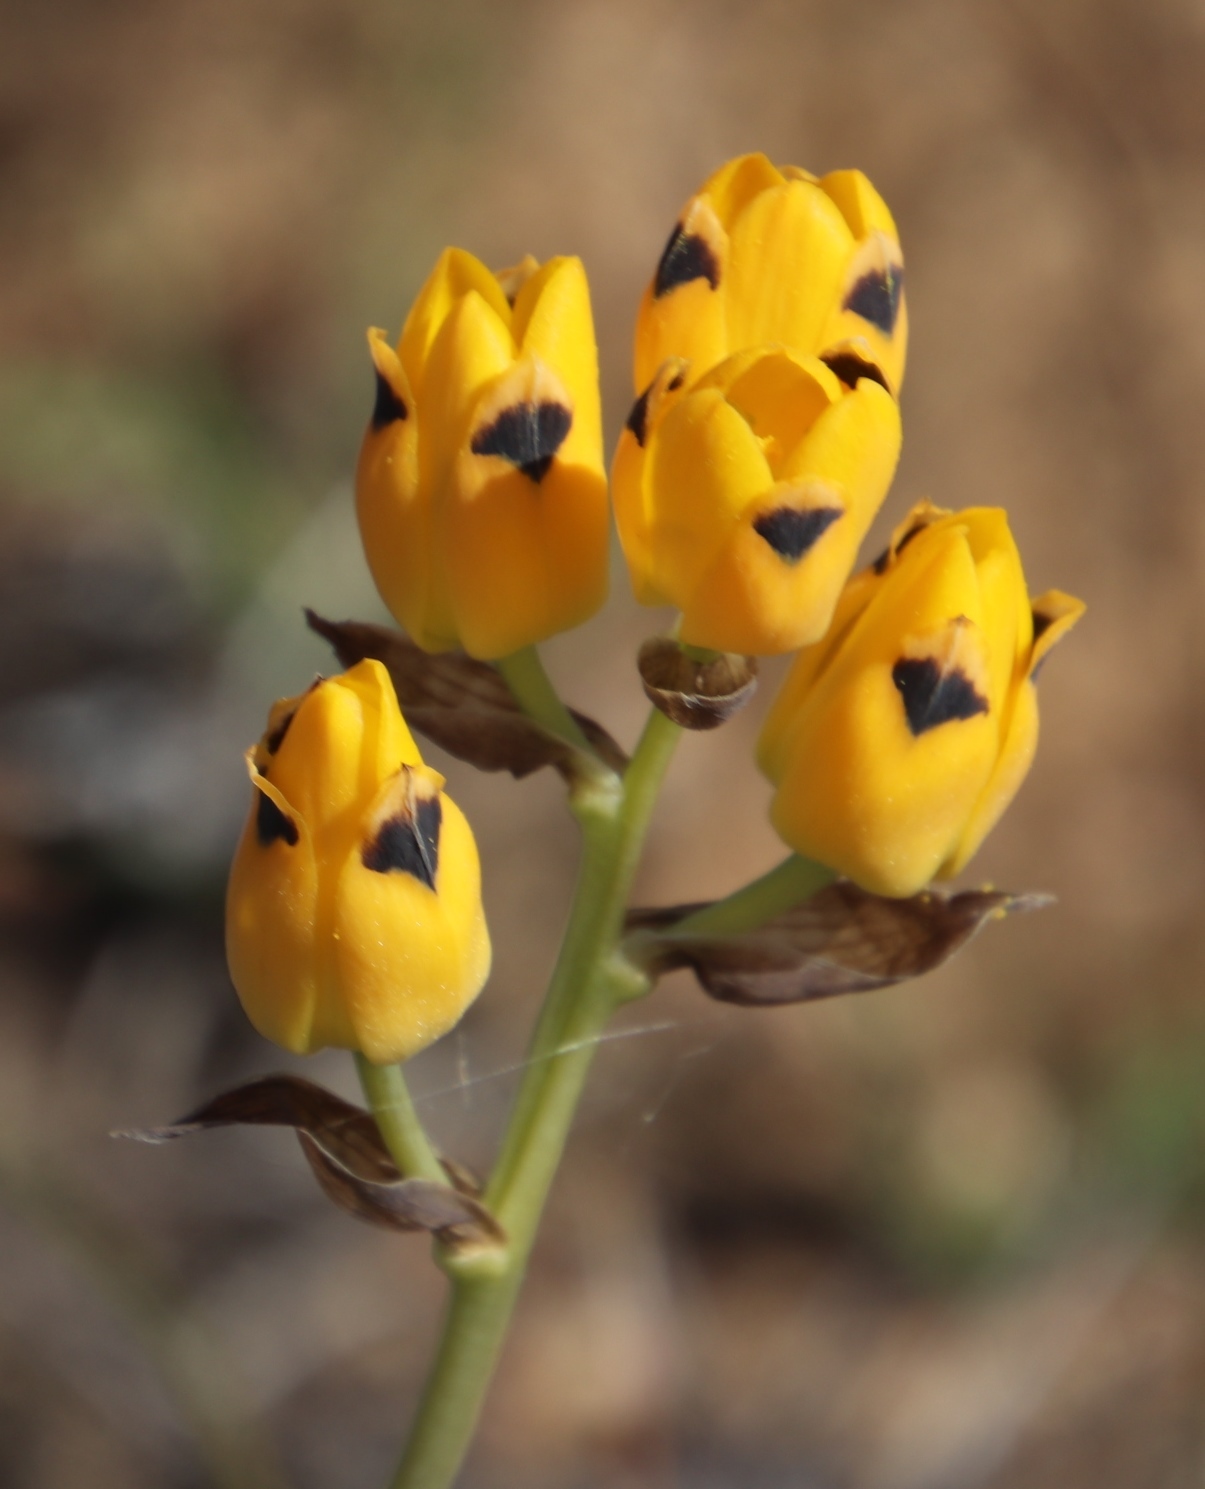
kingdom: Plantae
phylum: Tracheophyta
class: Liliopsida
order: Asparagales
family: Asparagaceae
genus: Ornithogalum
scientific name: Ornithogalum maculatum
